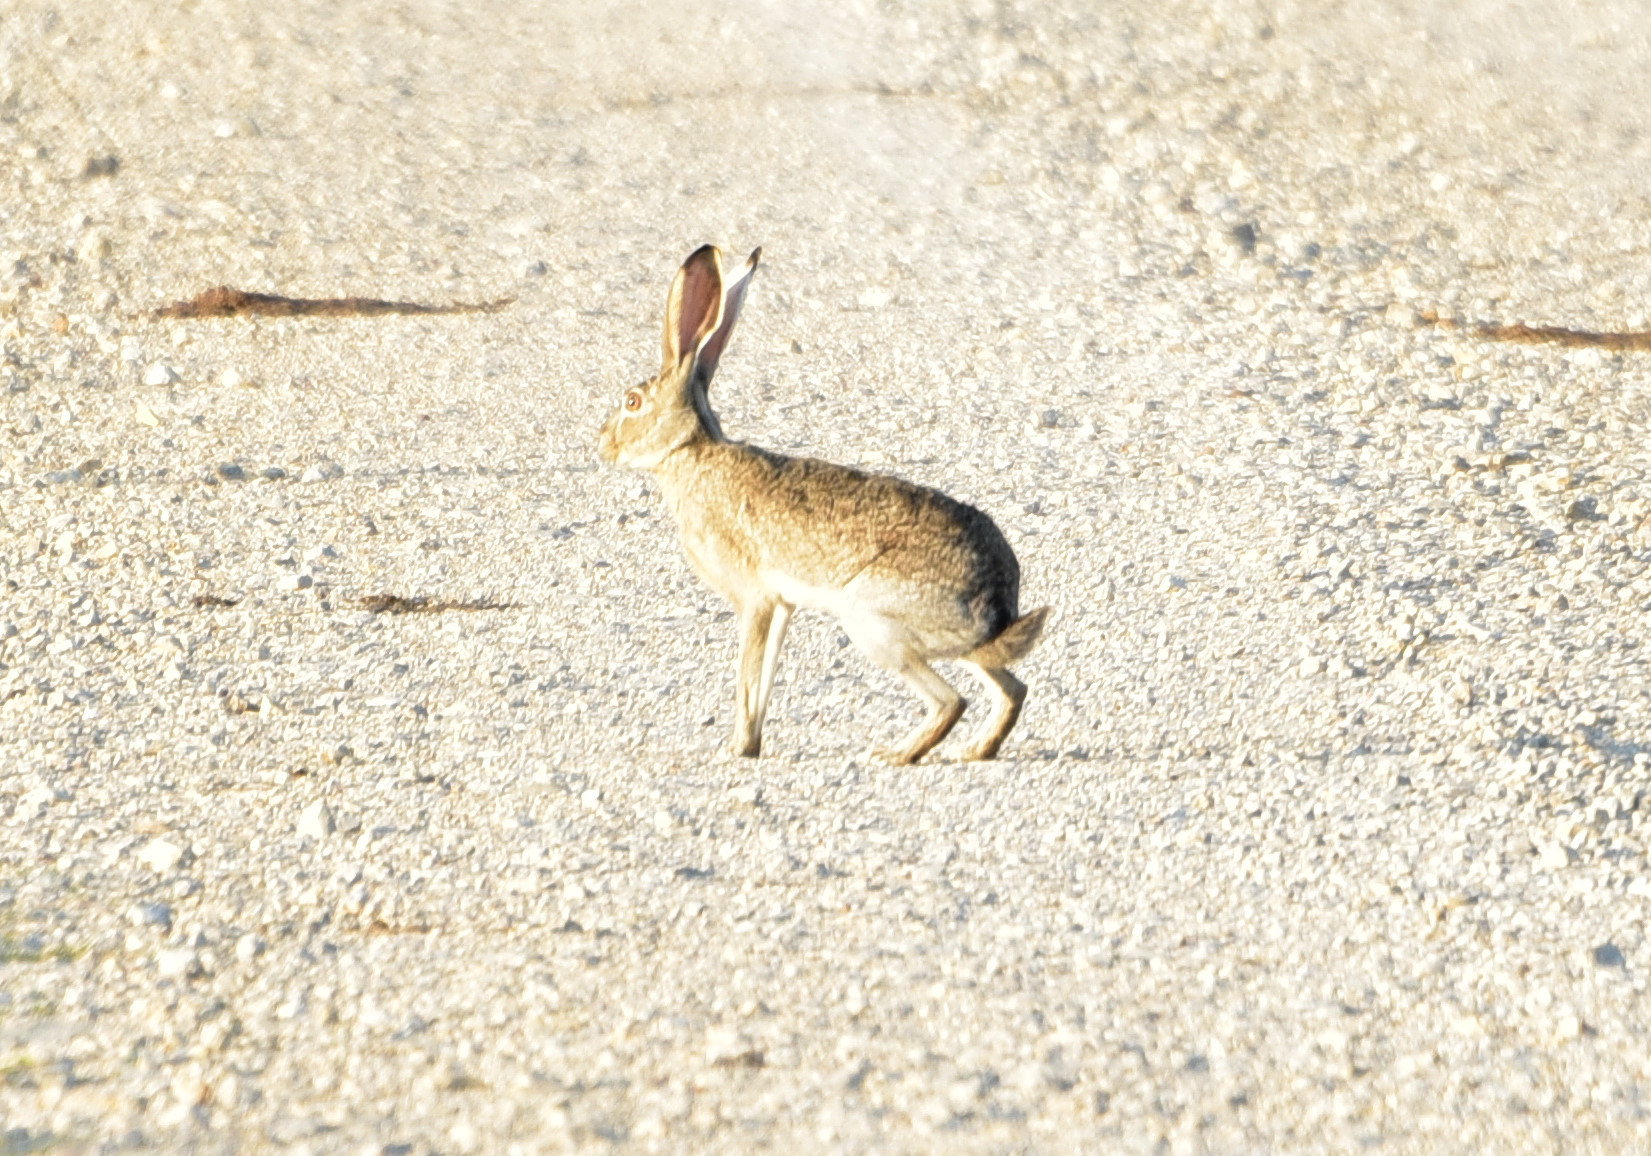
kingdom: Animalia
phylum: Chordata
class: Mammalia
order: Lagomorpha
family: Leporidae
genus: Lepus
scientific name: Lepus californicus
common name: Black-tailed jackrabbit
